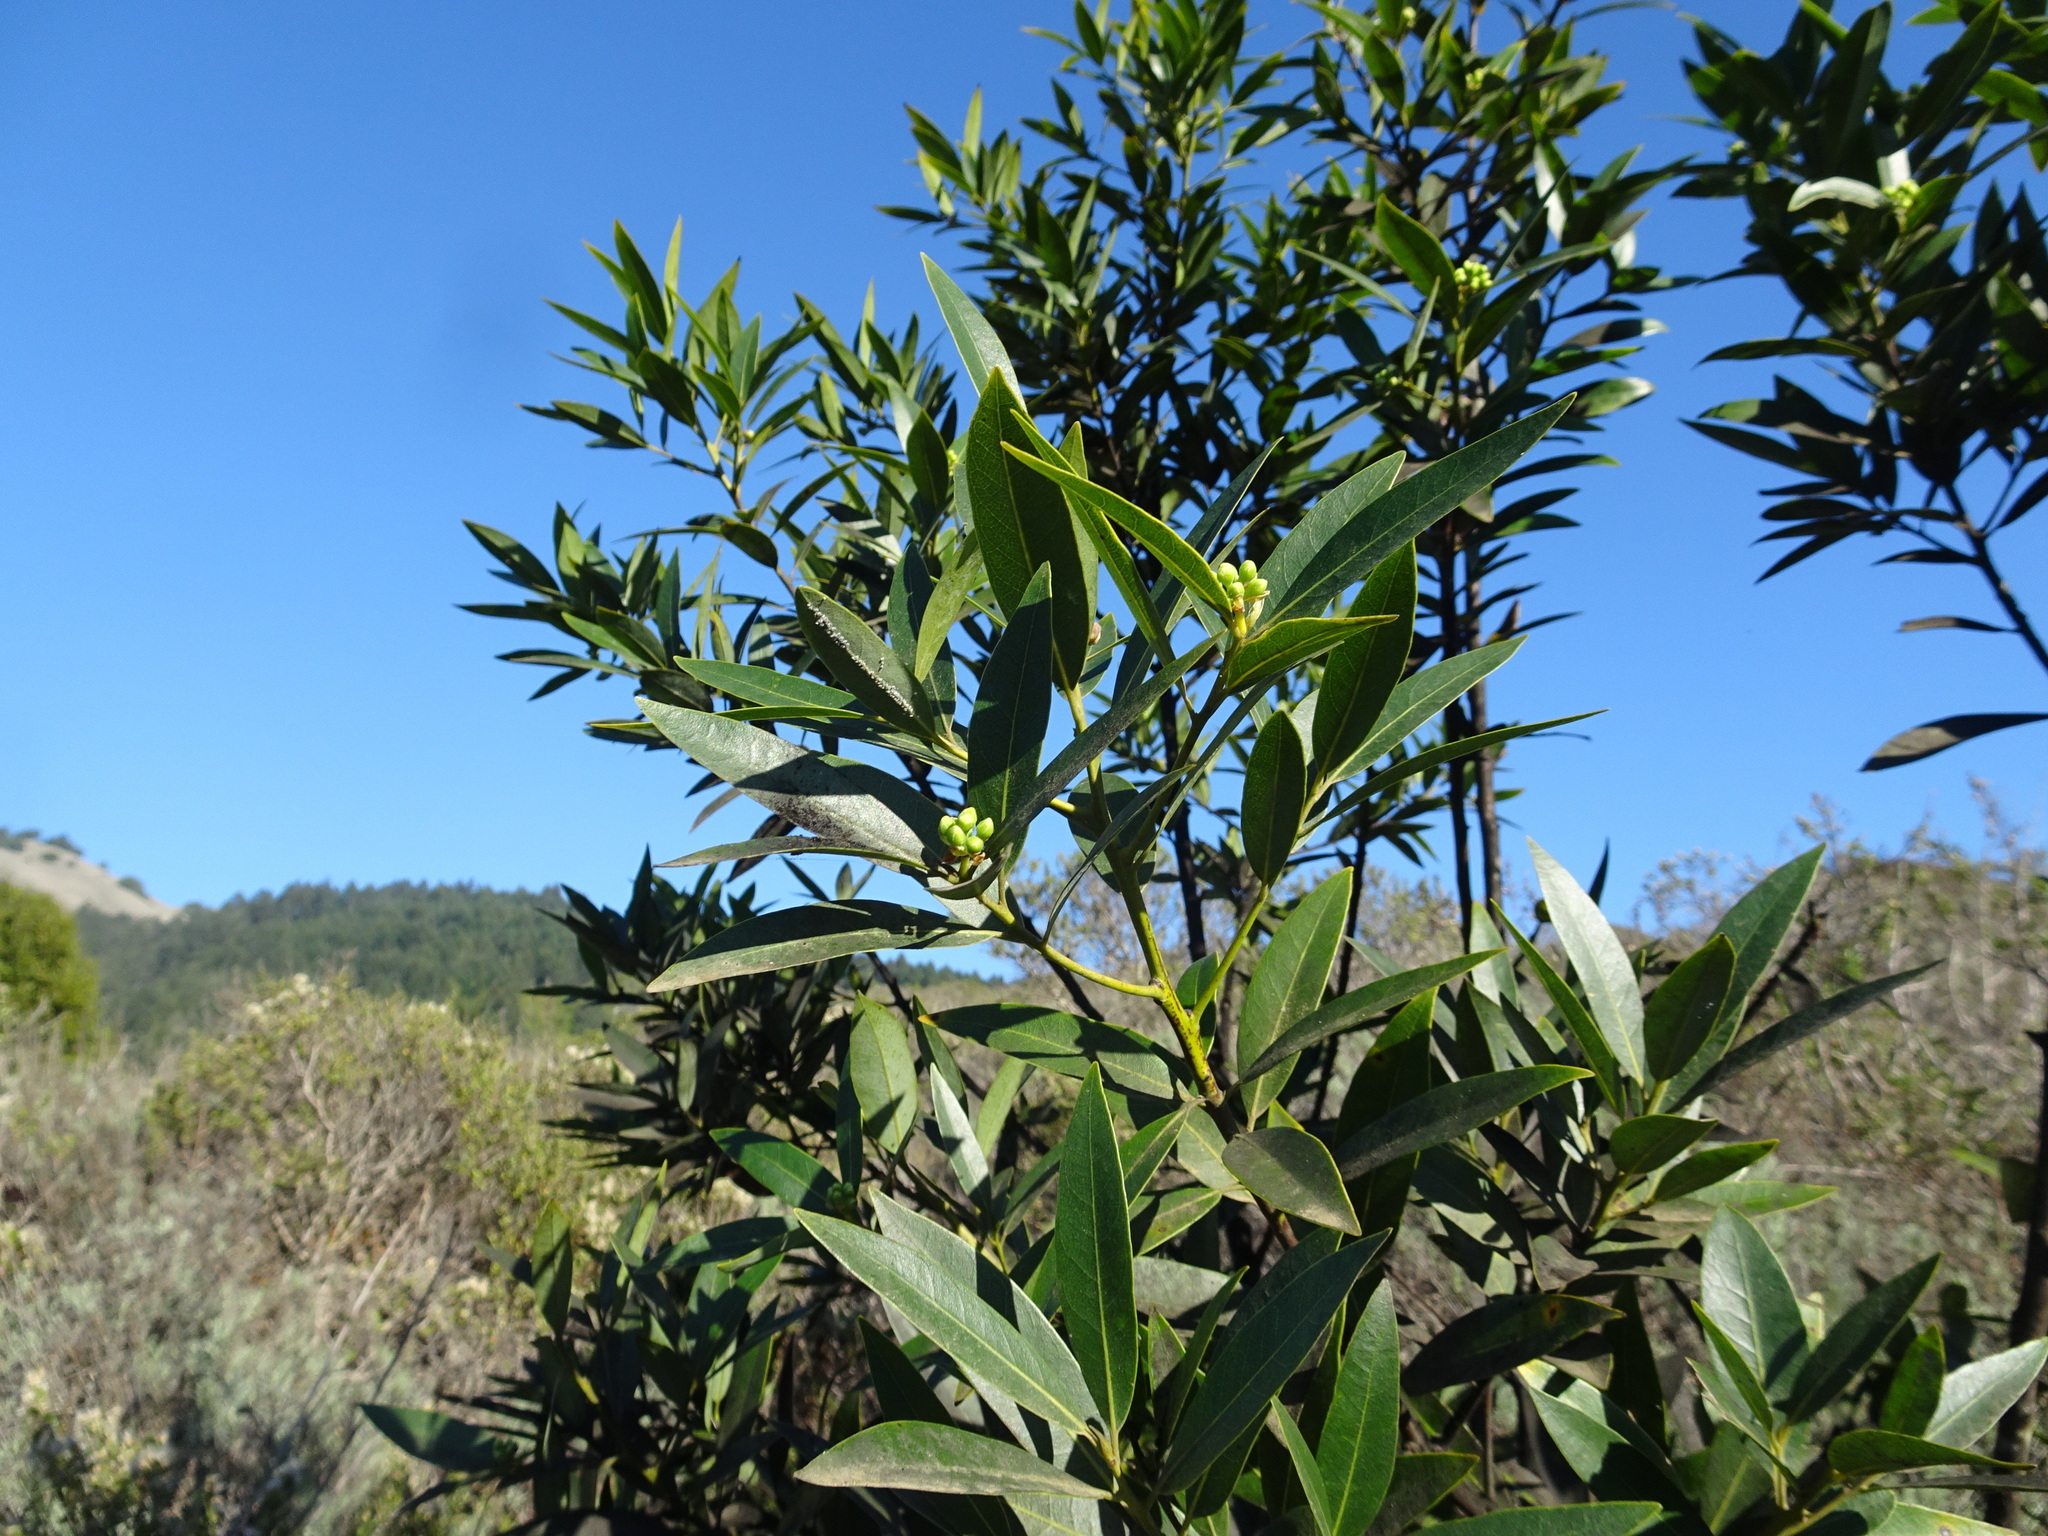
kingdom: Plantae
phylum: Tracheophyta
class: Magnoliopsida
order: Laurales
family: Lauraceae
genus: Umbellularia
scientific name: Umbellularia californica
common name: California bay
